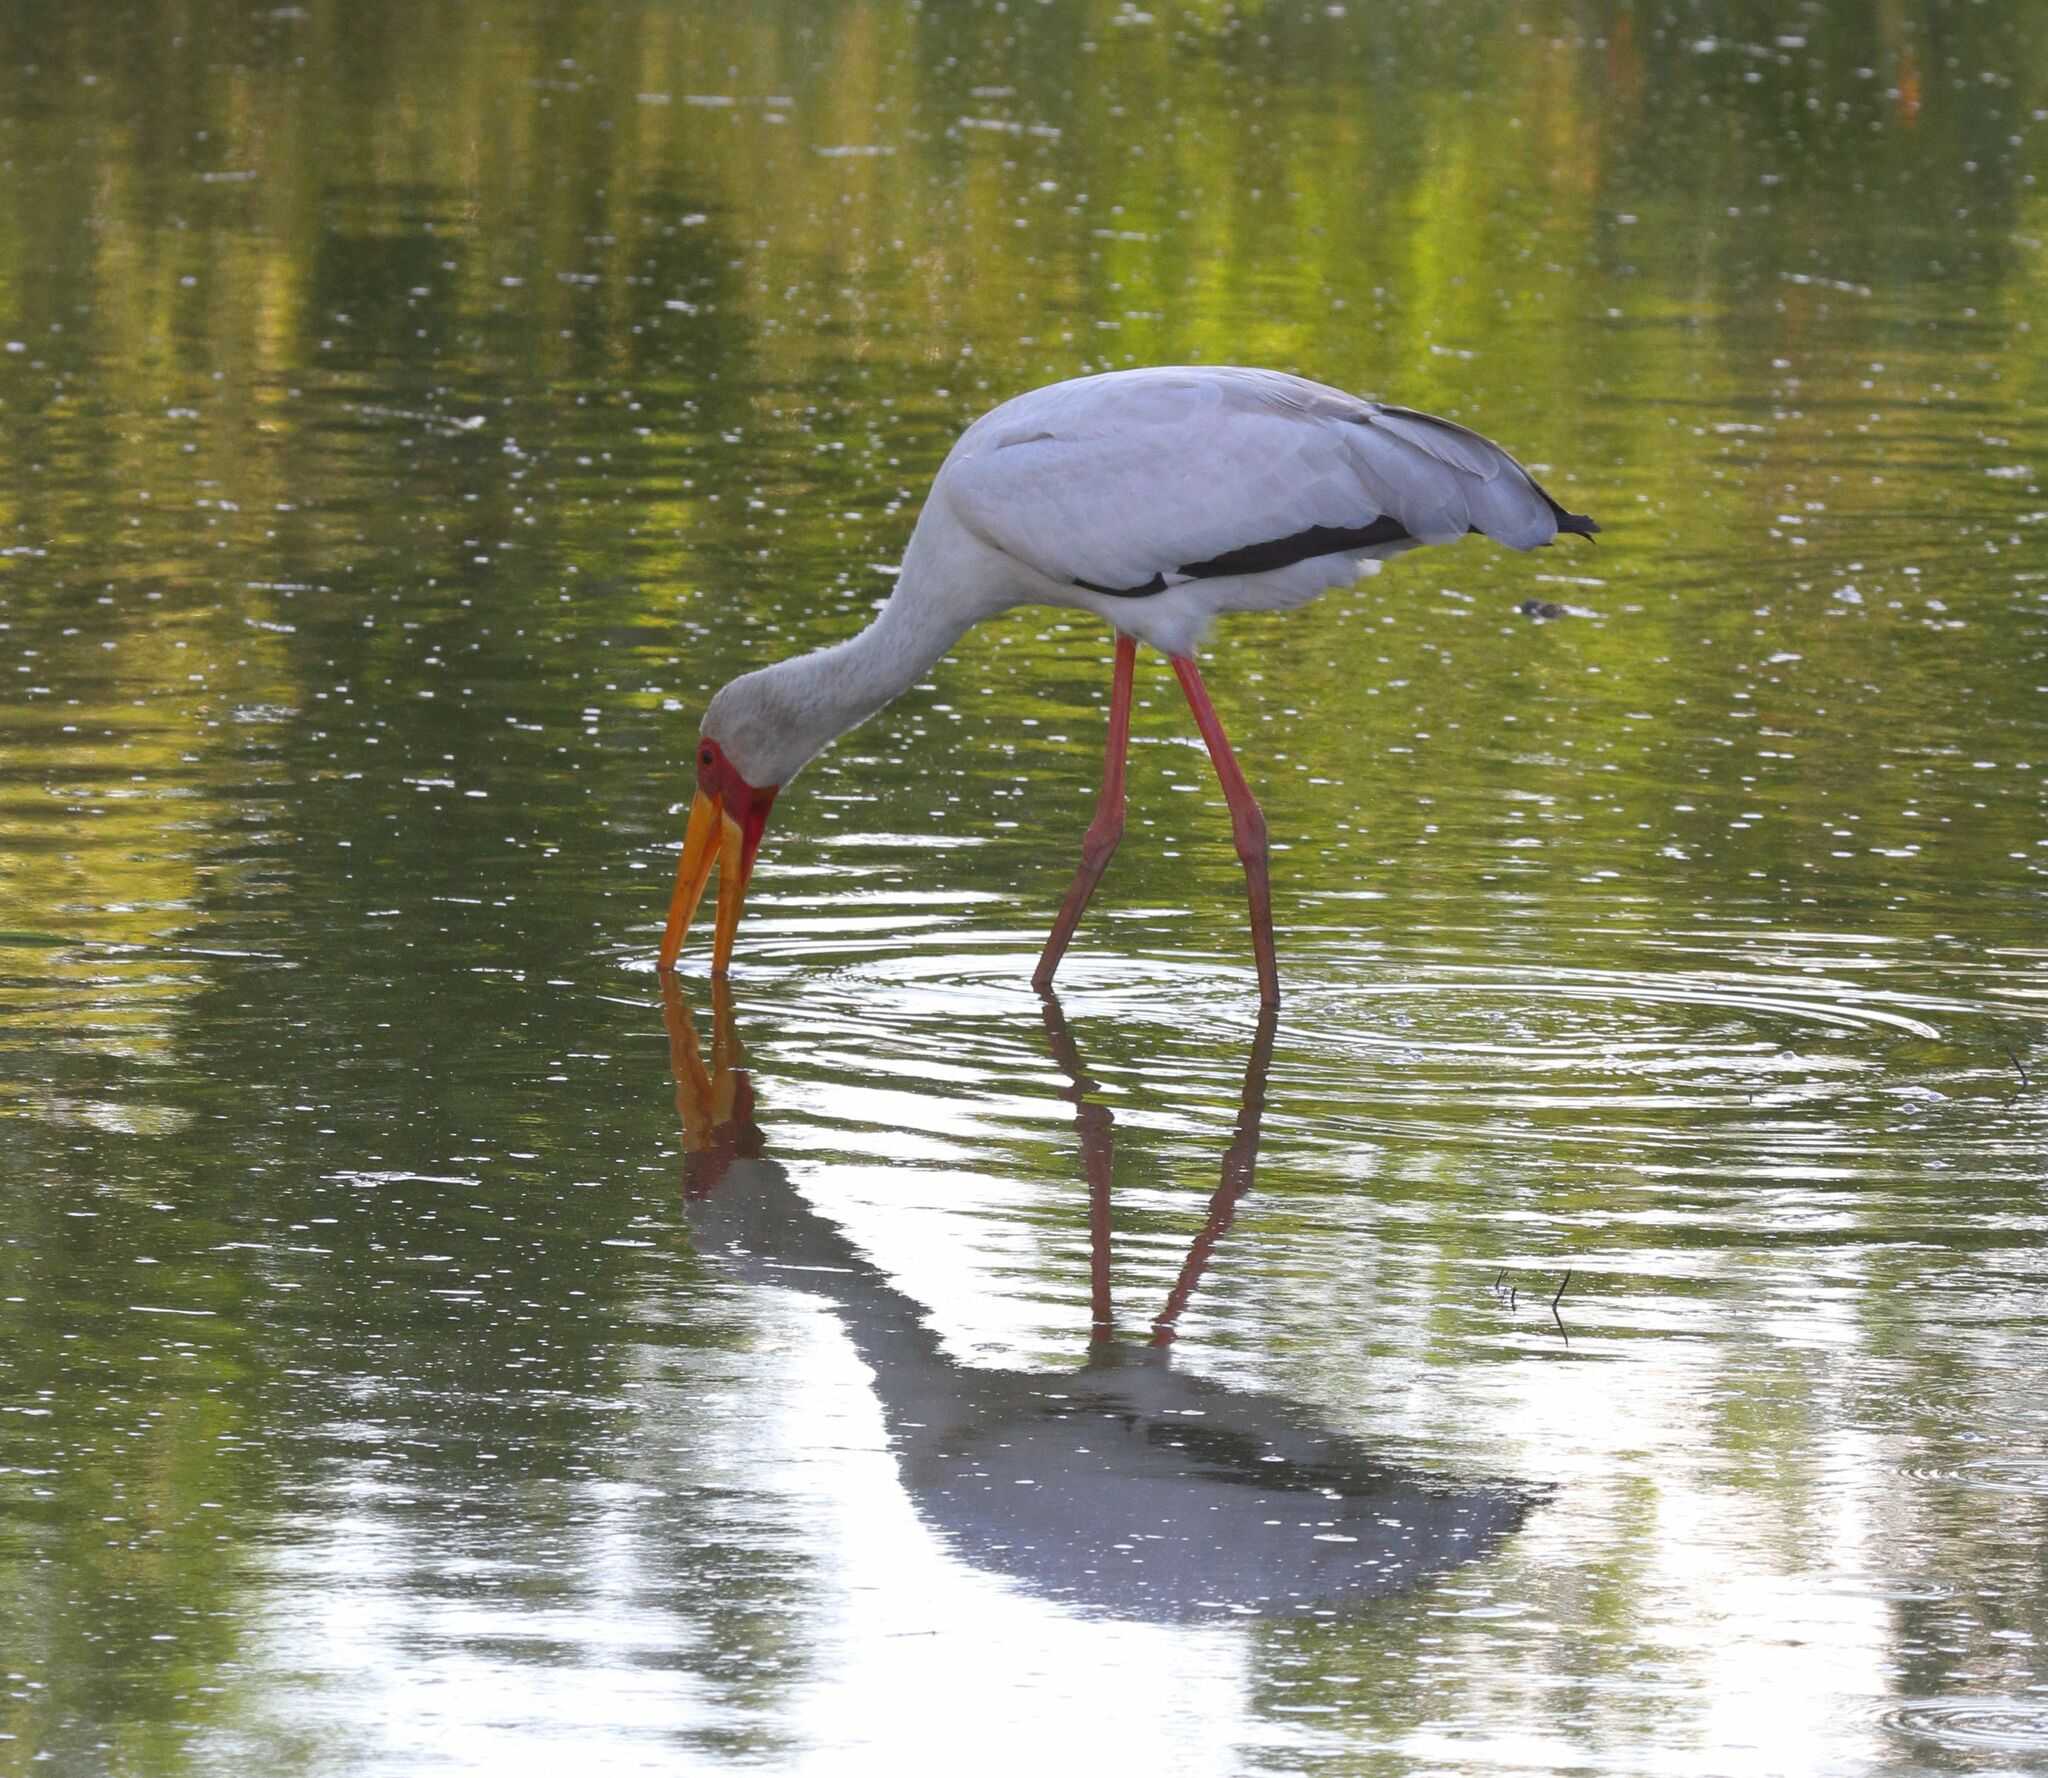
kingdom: Animalia
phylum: Chordata
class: Aves
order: Ciconiiformes
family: Ciconiidae
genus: Mycteria
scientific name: Mycteria ibis
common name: Yellow-billed stork
